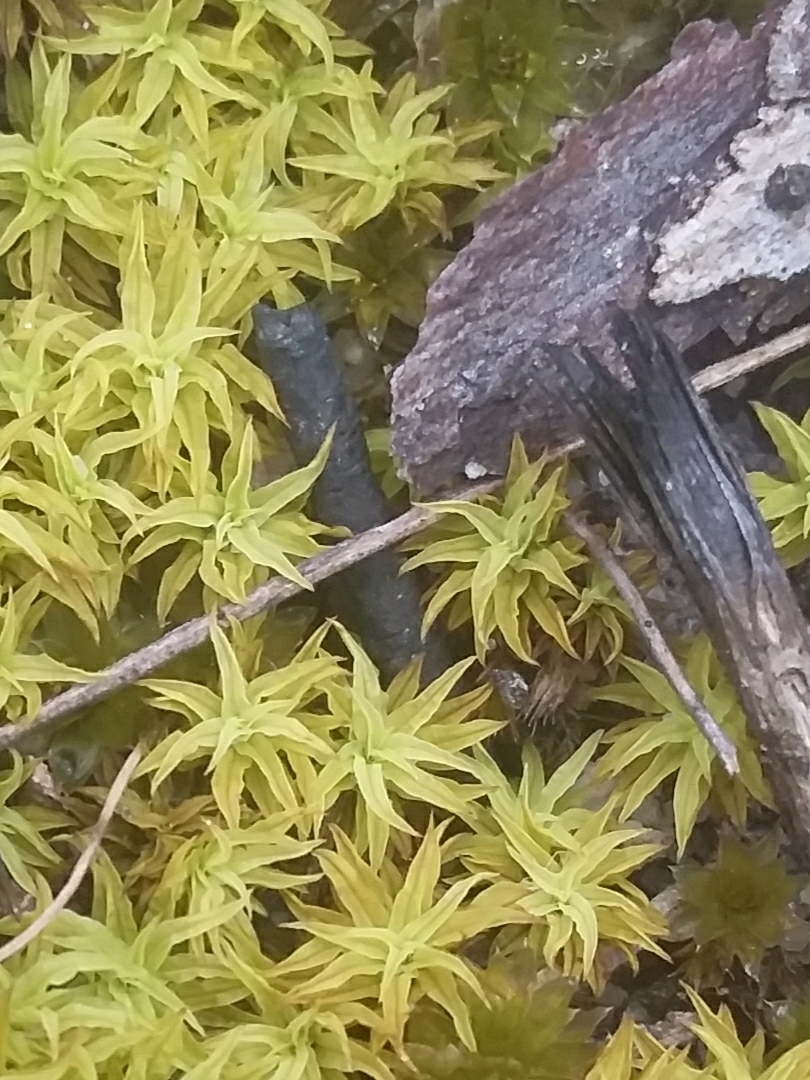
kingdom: Plantae
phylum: Bryophyta
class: Bryopsida
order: Pottiales
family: Pottiaceae
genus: Triquetrella
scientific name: Triquetrella paradoxa
